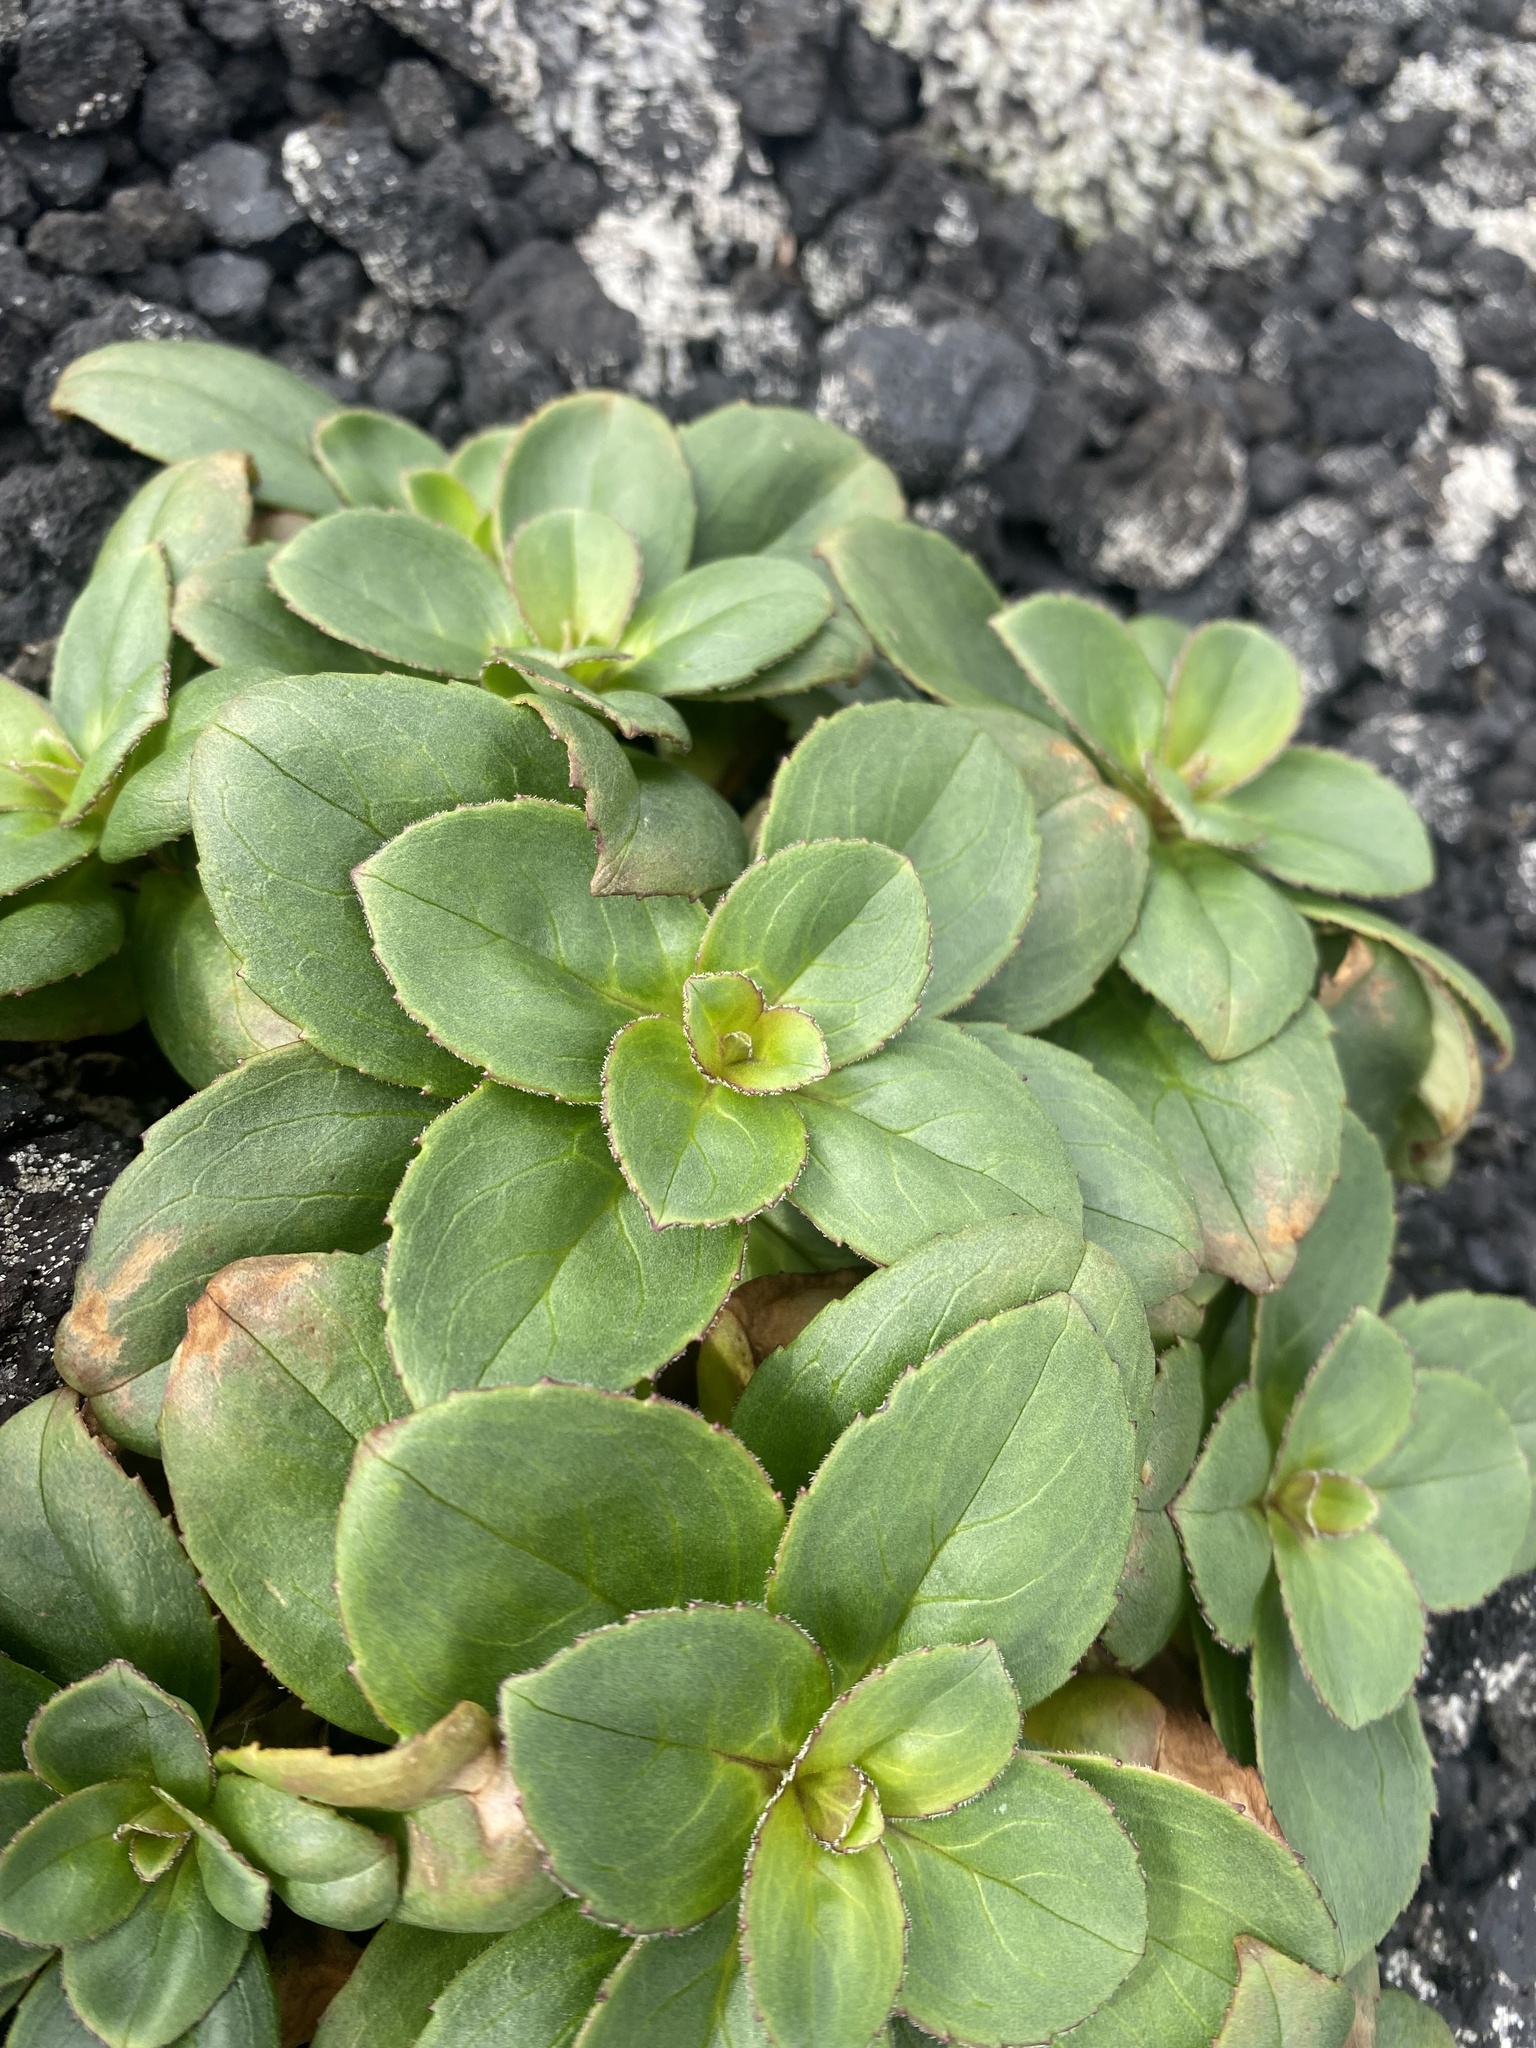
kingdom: Plantae
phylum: Tracheophyta
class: Magnoliopsida
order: Lamiales
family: Plantaginaceae
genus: Pennellianthus
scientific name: Pennellianthus frutescens
